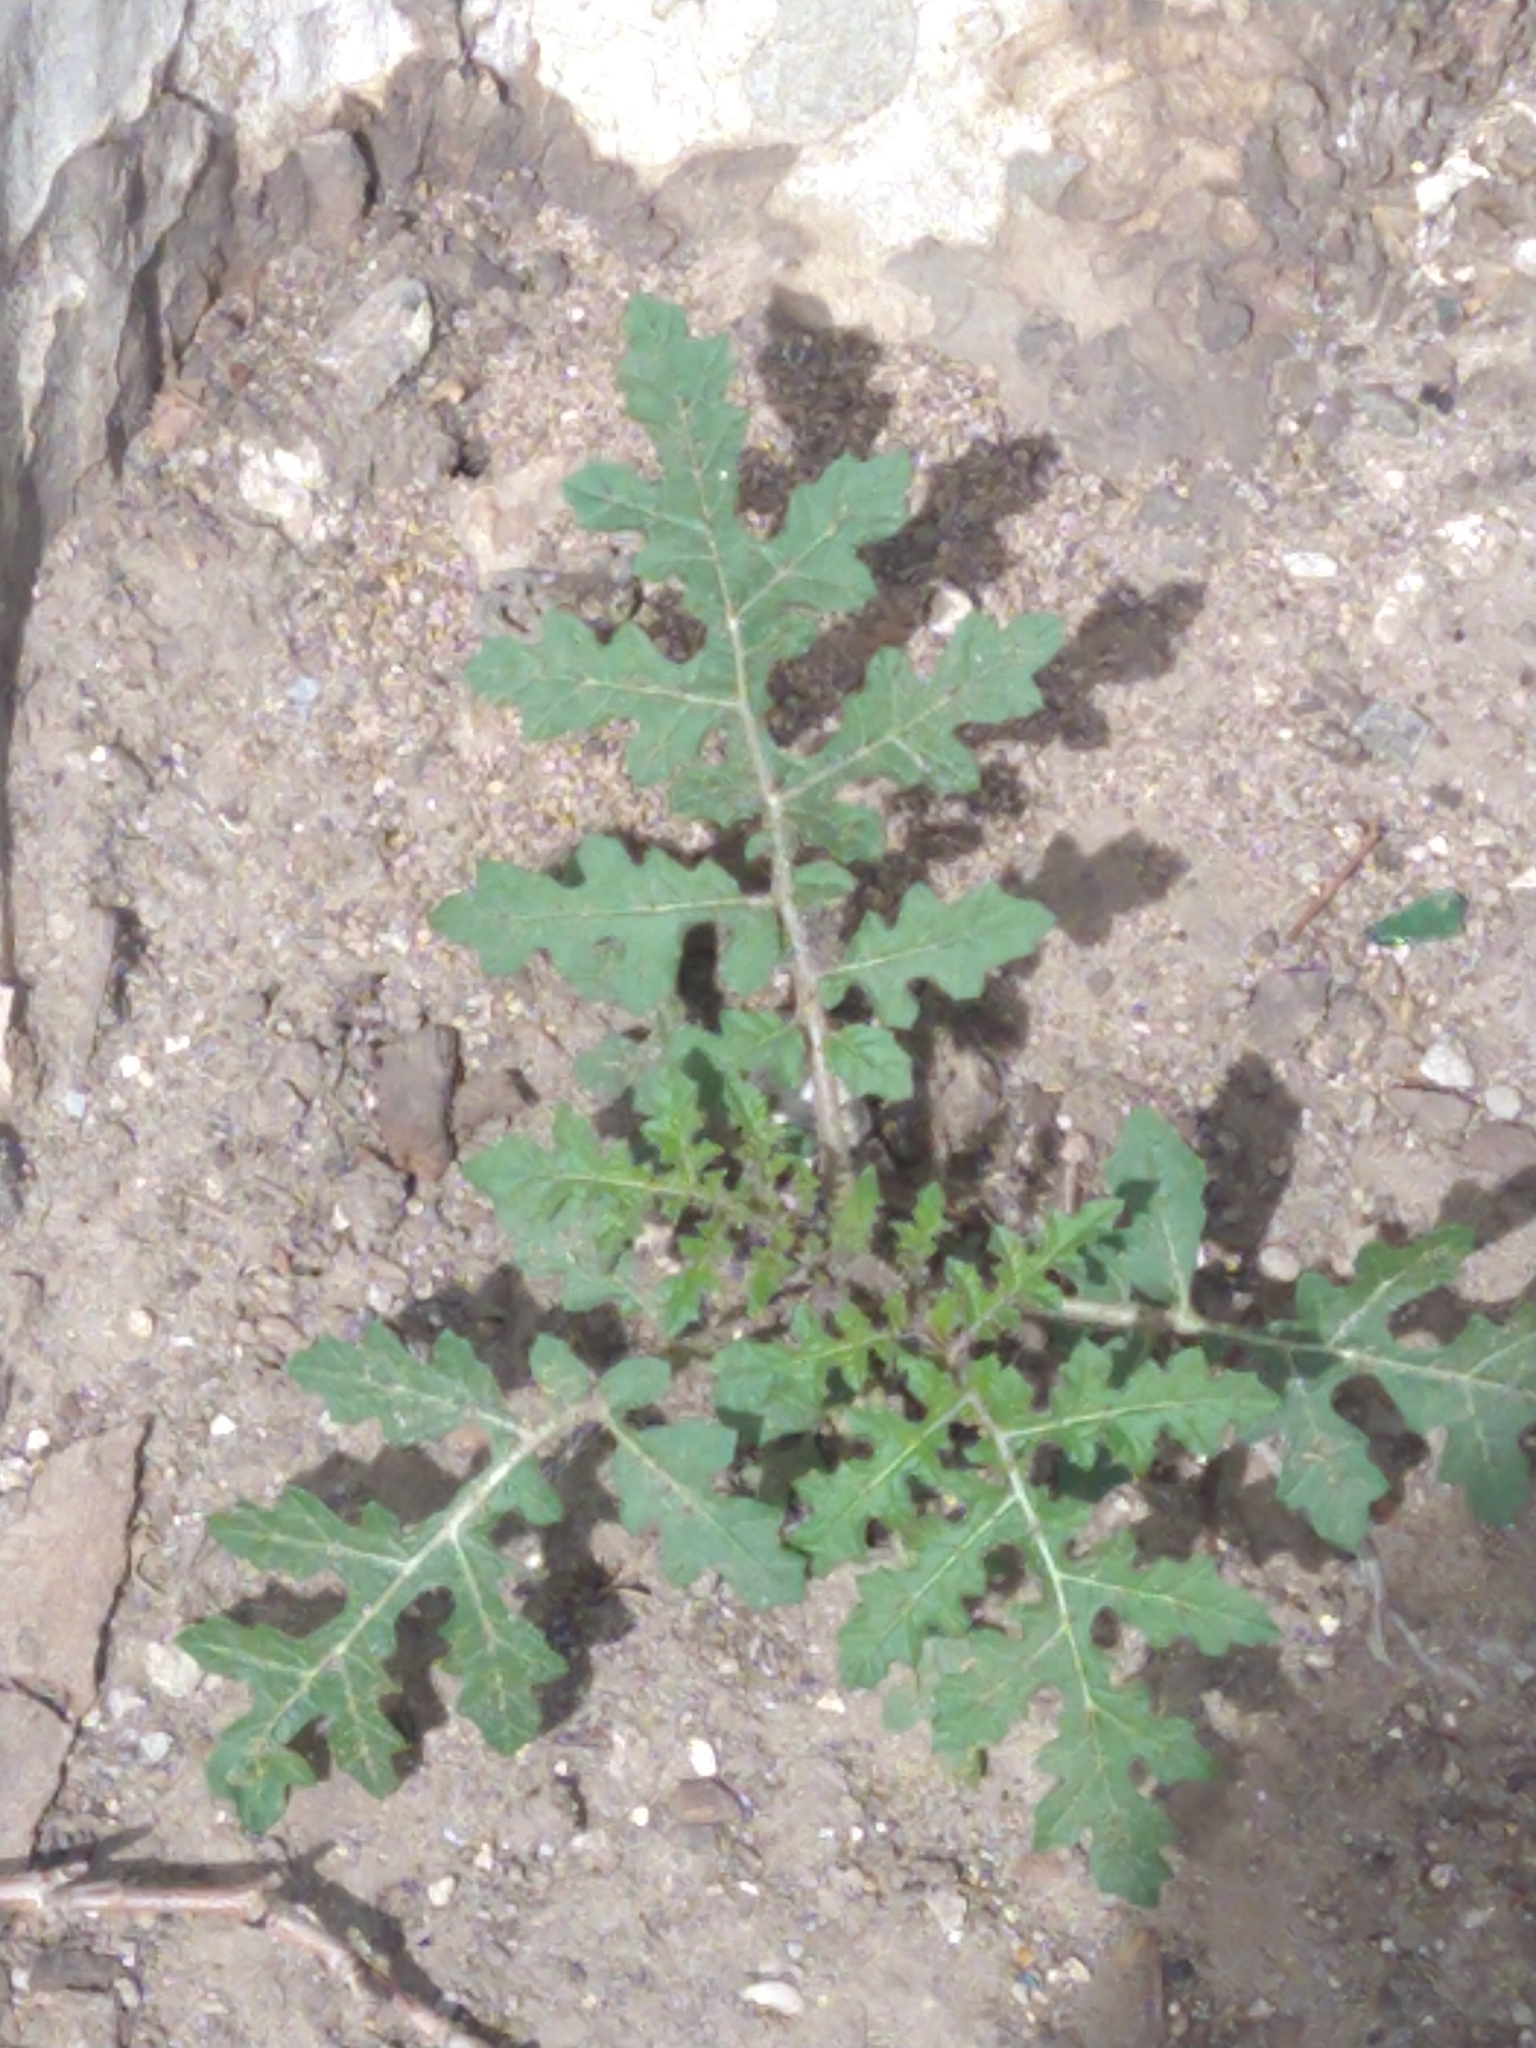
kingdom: Plantae
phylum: Tracheophyta
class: Magnoliopsida
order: Solanales
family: Solanaceae
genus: Solanum
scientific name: Solanum sisymbriifolium
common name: Red buffalo-bur
